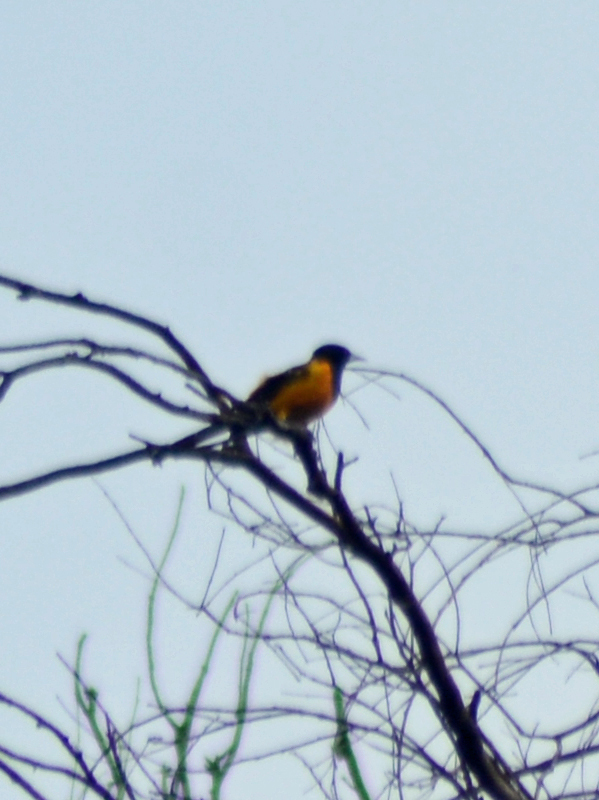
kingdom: Animalia
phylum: Chordata
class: Aves
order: Passeriformes
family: Icteridae
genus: Icterus
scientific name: Icterus wagleri
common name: Black-vented oriole
